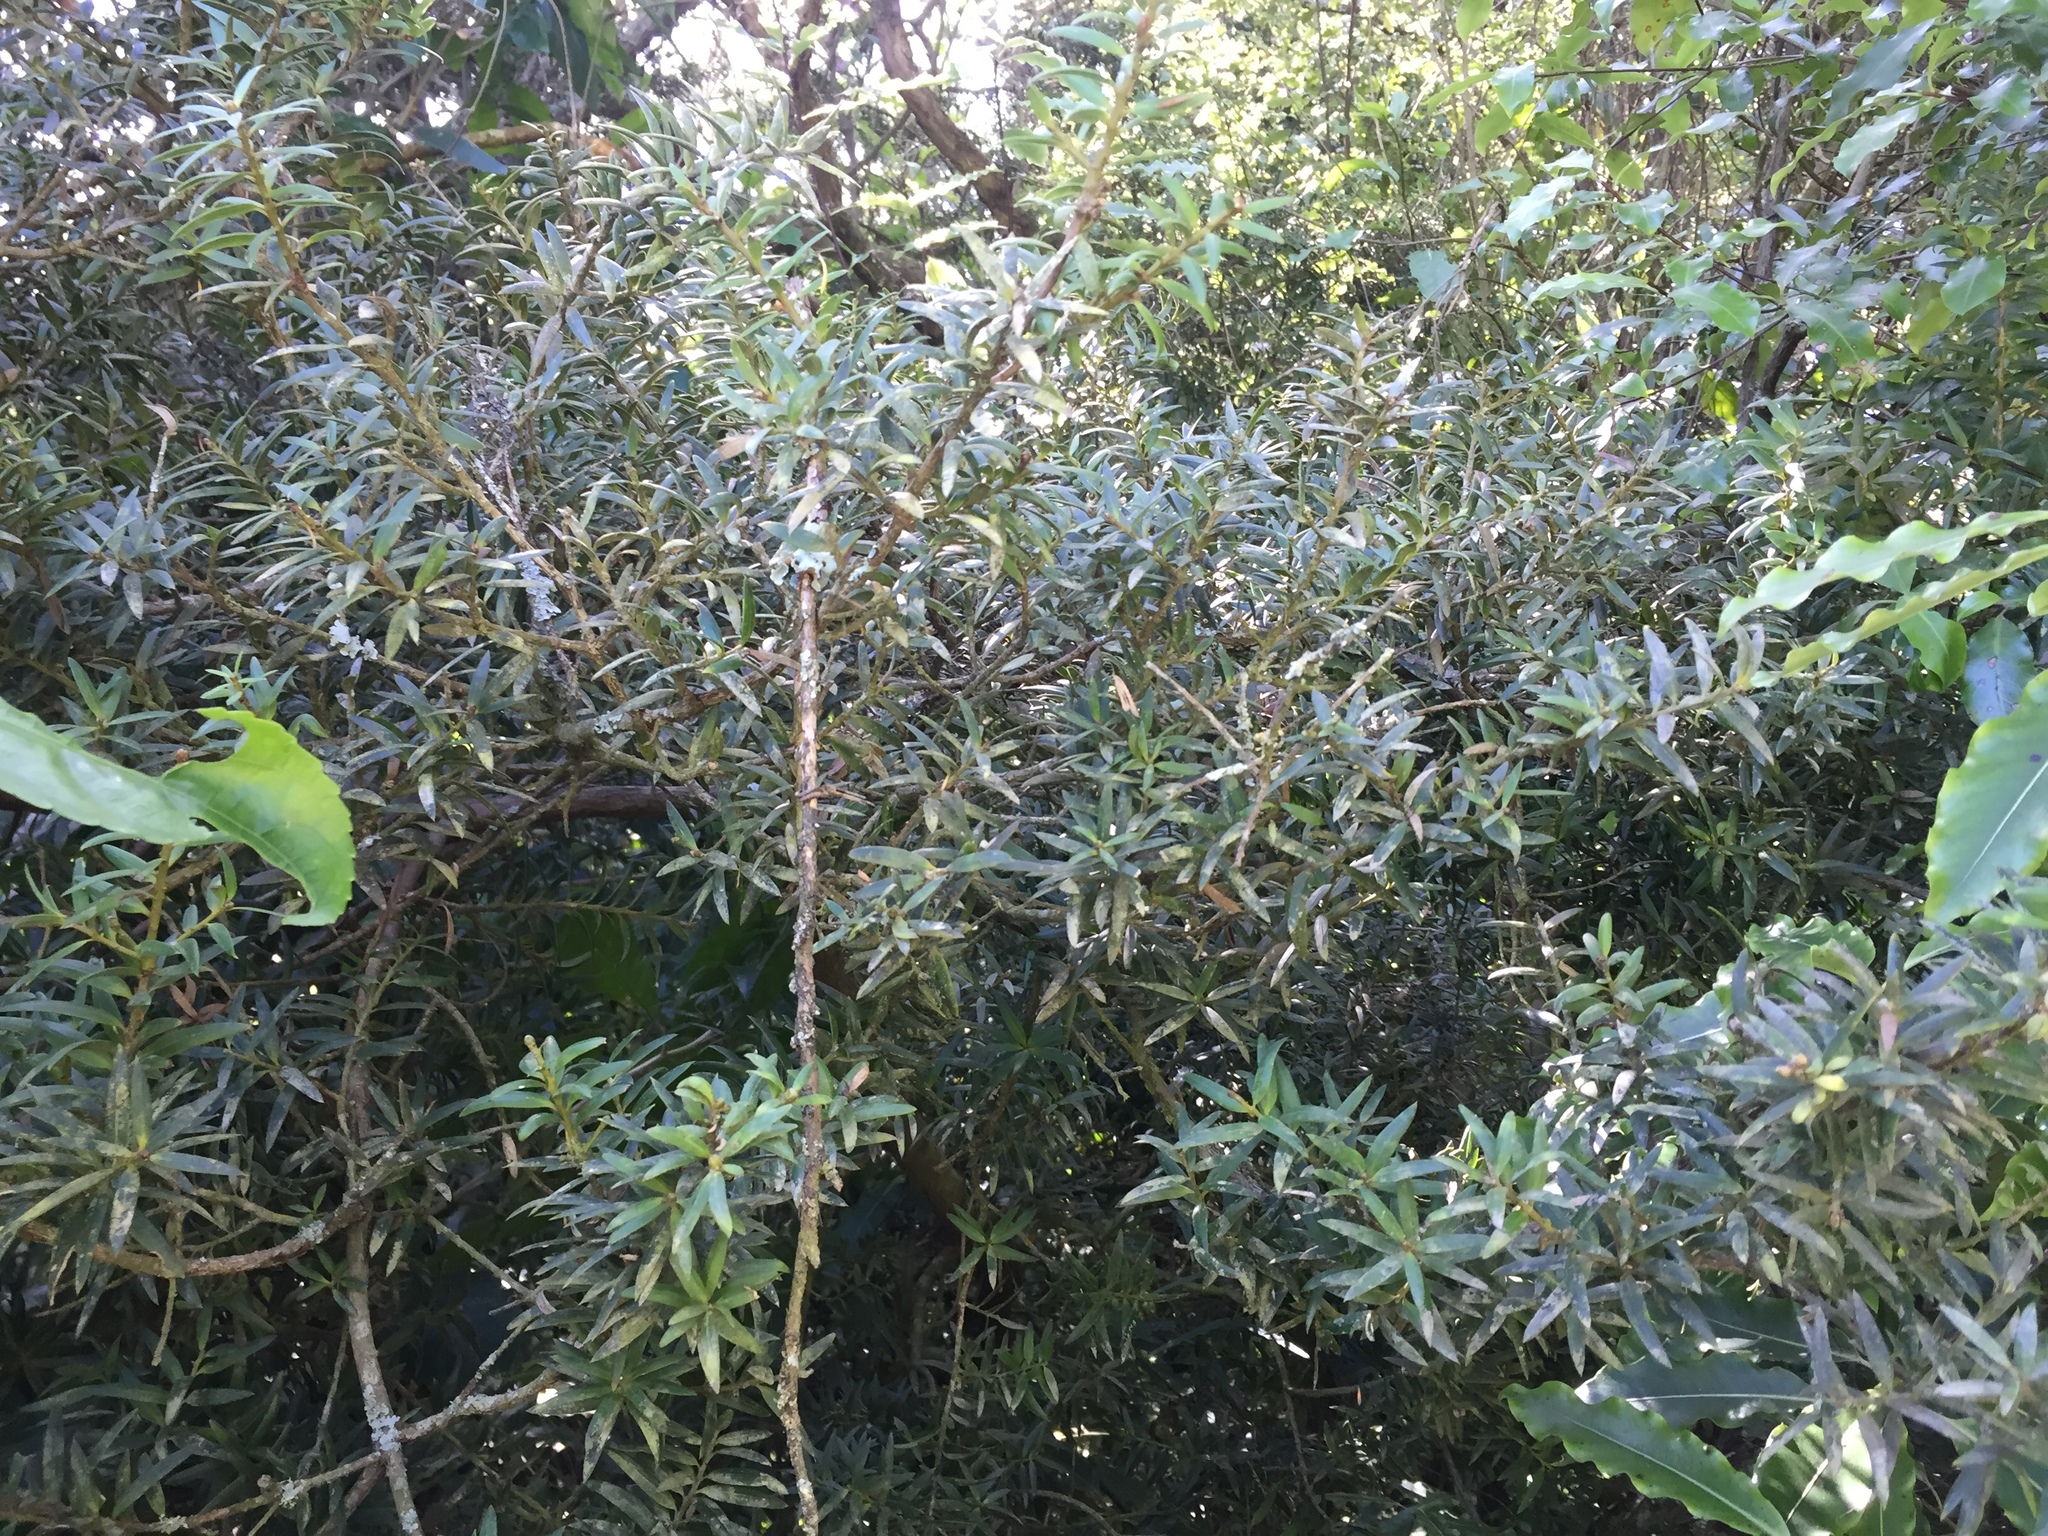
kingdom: Plantae
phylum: Tracheophyta
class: Pinopsida
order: Pinales
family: Podocarpaceae
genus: Podocarpus
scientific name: Podocarpus totara
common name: Totara
